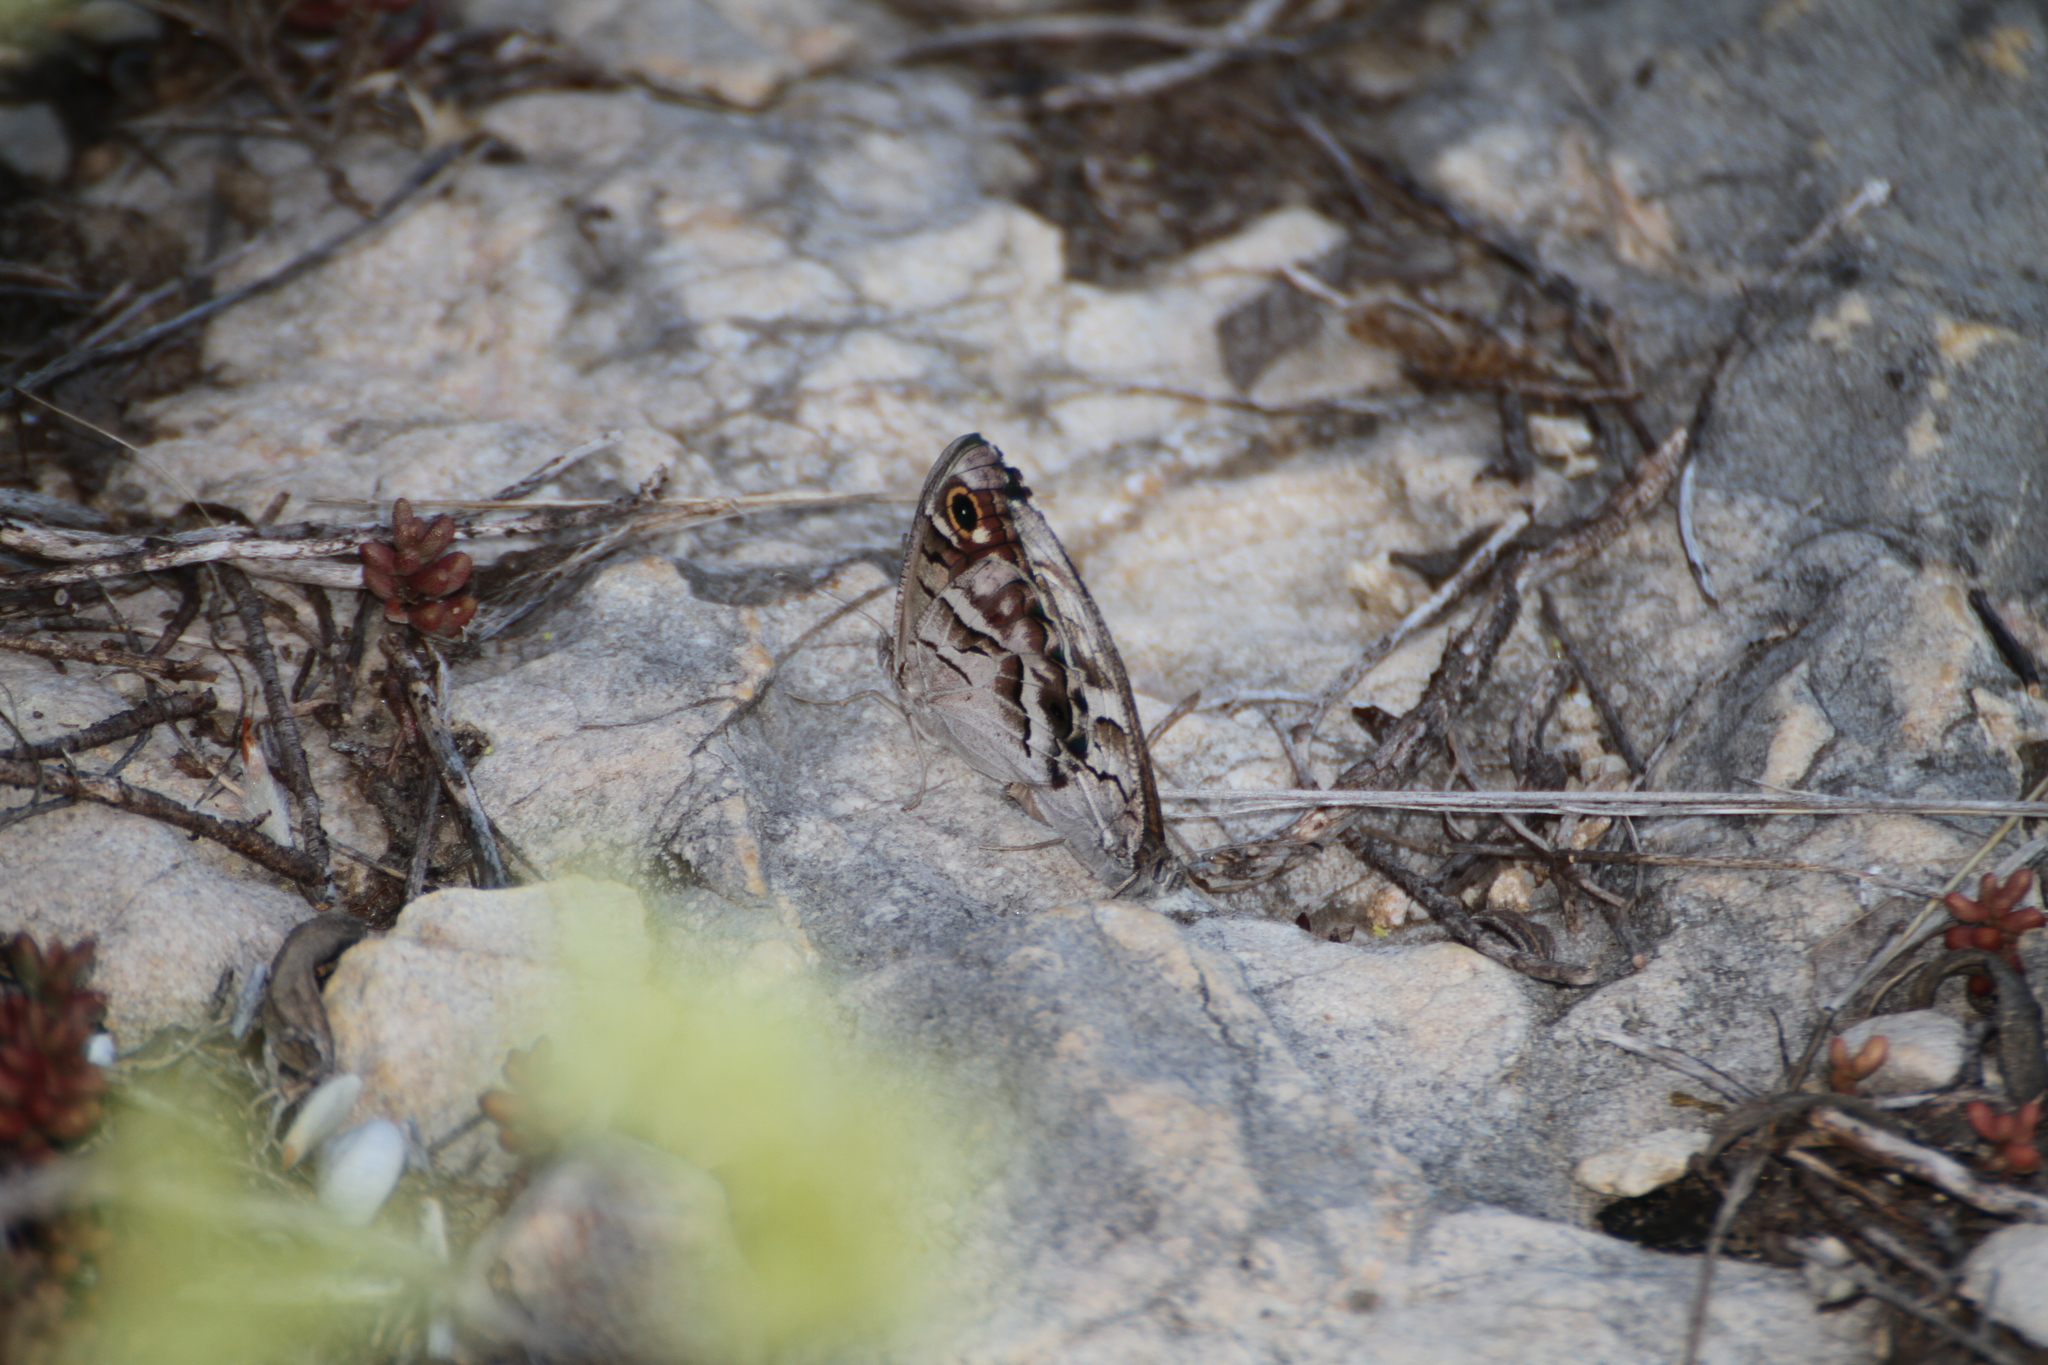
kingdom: Animalia
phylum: Arthropoda
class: Insecta
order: Lepidoptera
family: Nymphalidae
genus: Hipparchia
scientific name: Hipparchia fidia
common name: Striped grayling
